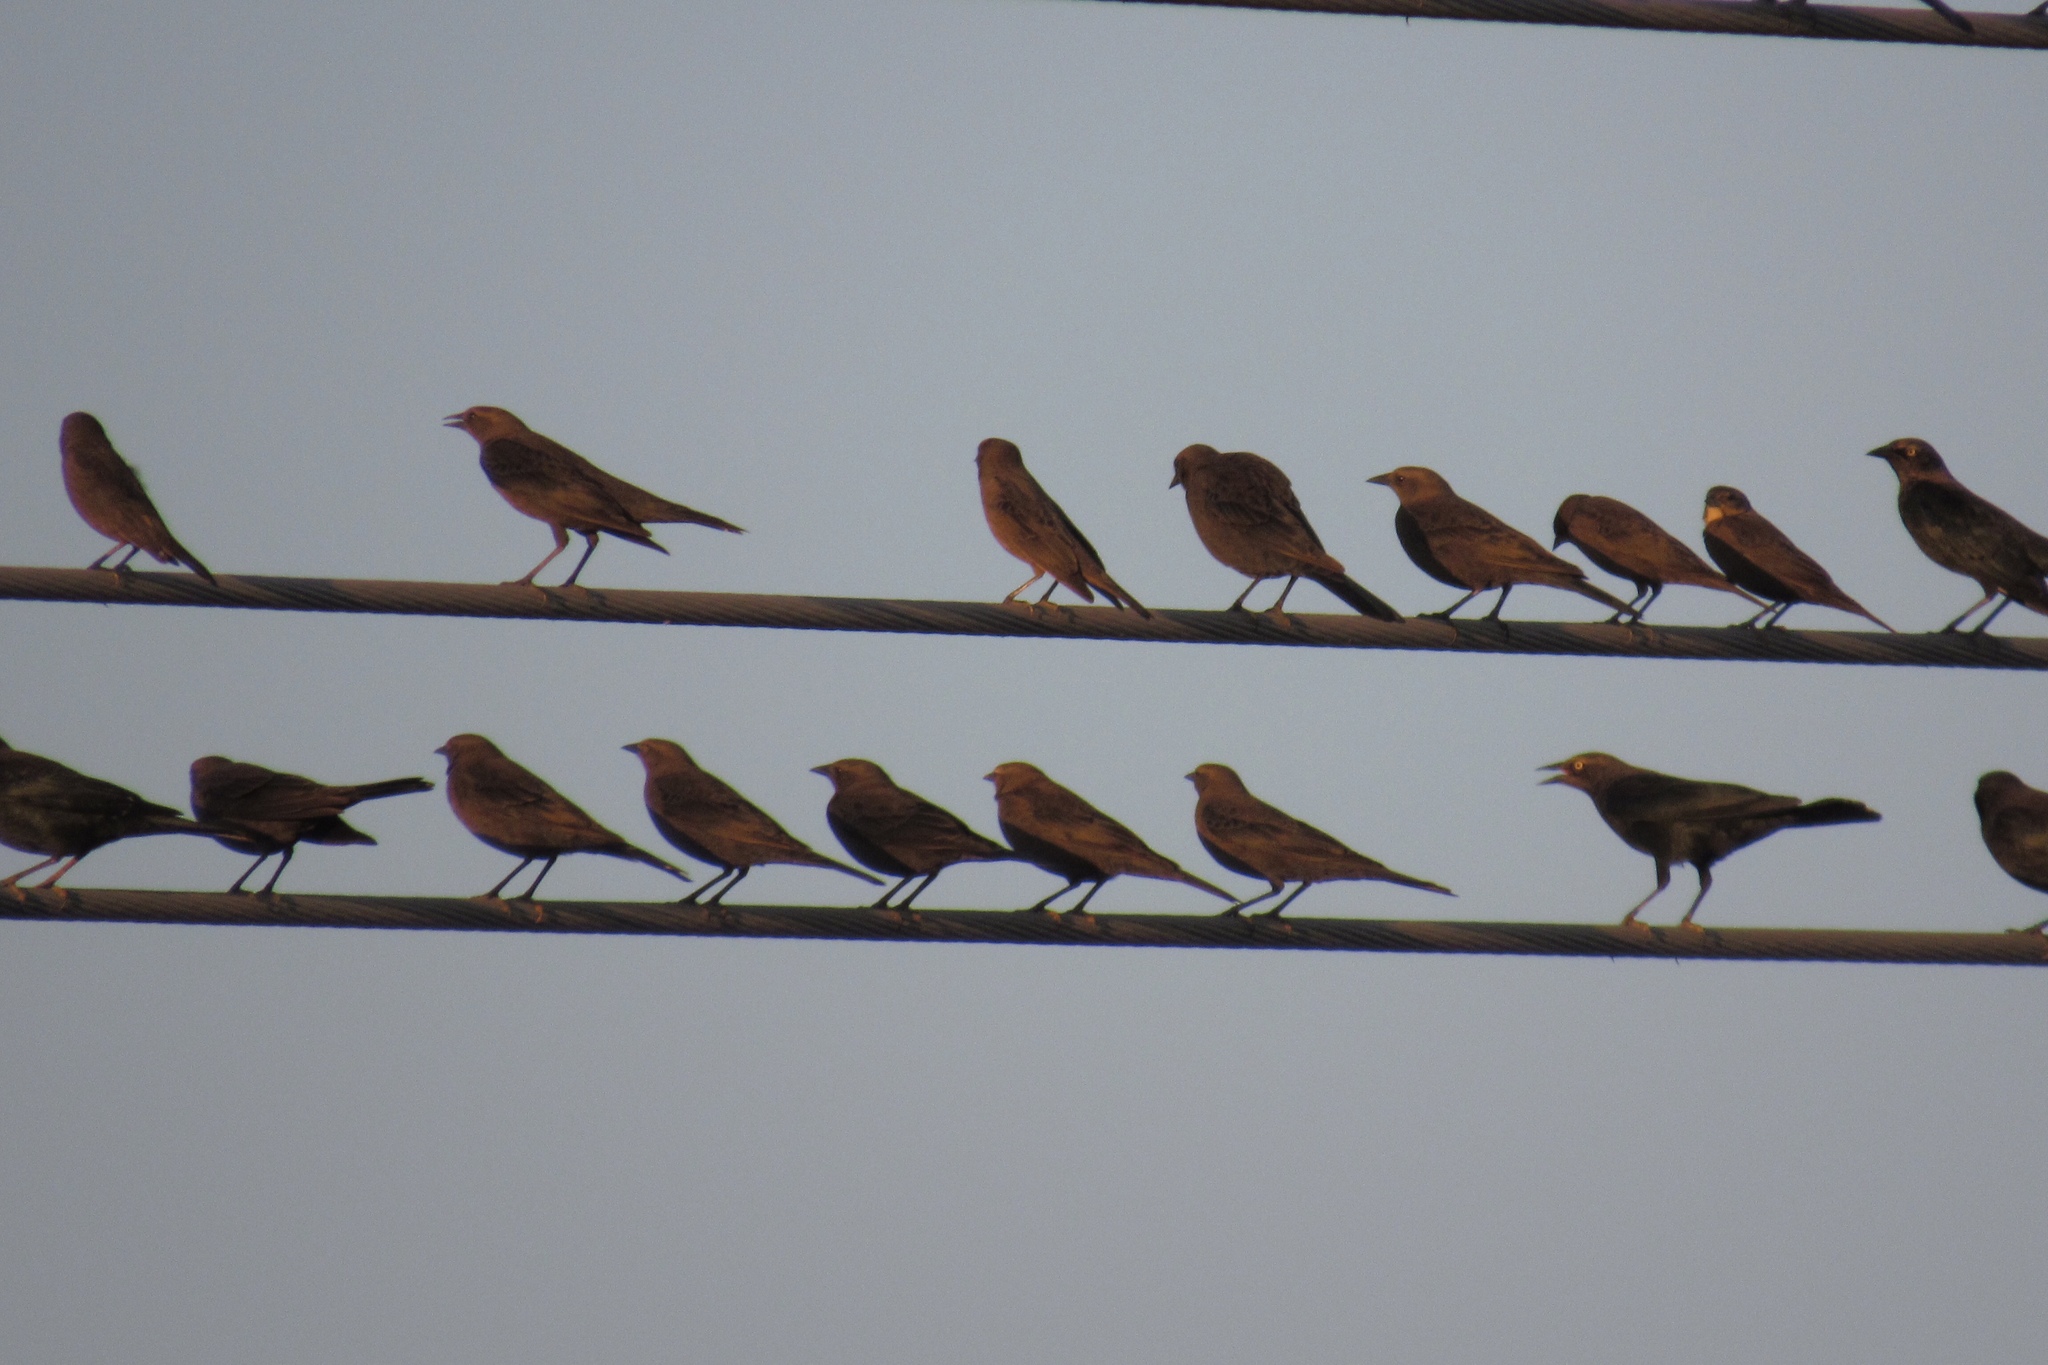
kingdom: Animalia
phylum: Chordata
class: Aves
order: Passeriformes
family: Icteridae
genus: Euphagus
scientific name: Euphagus cyanocephalus
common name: Brewer's blackbird
